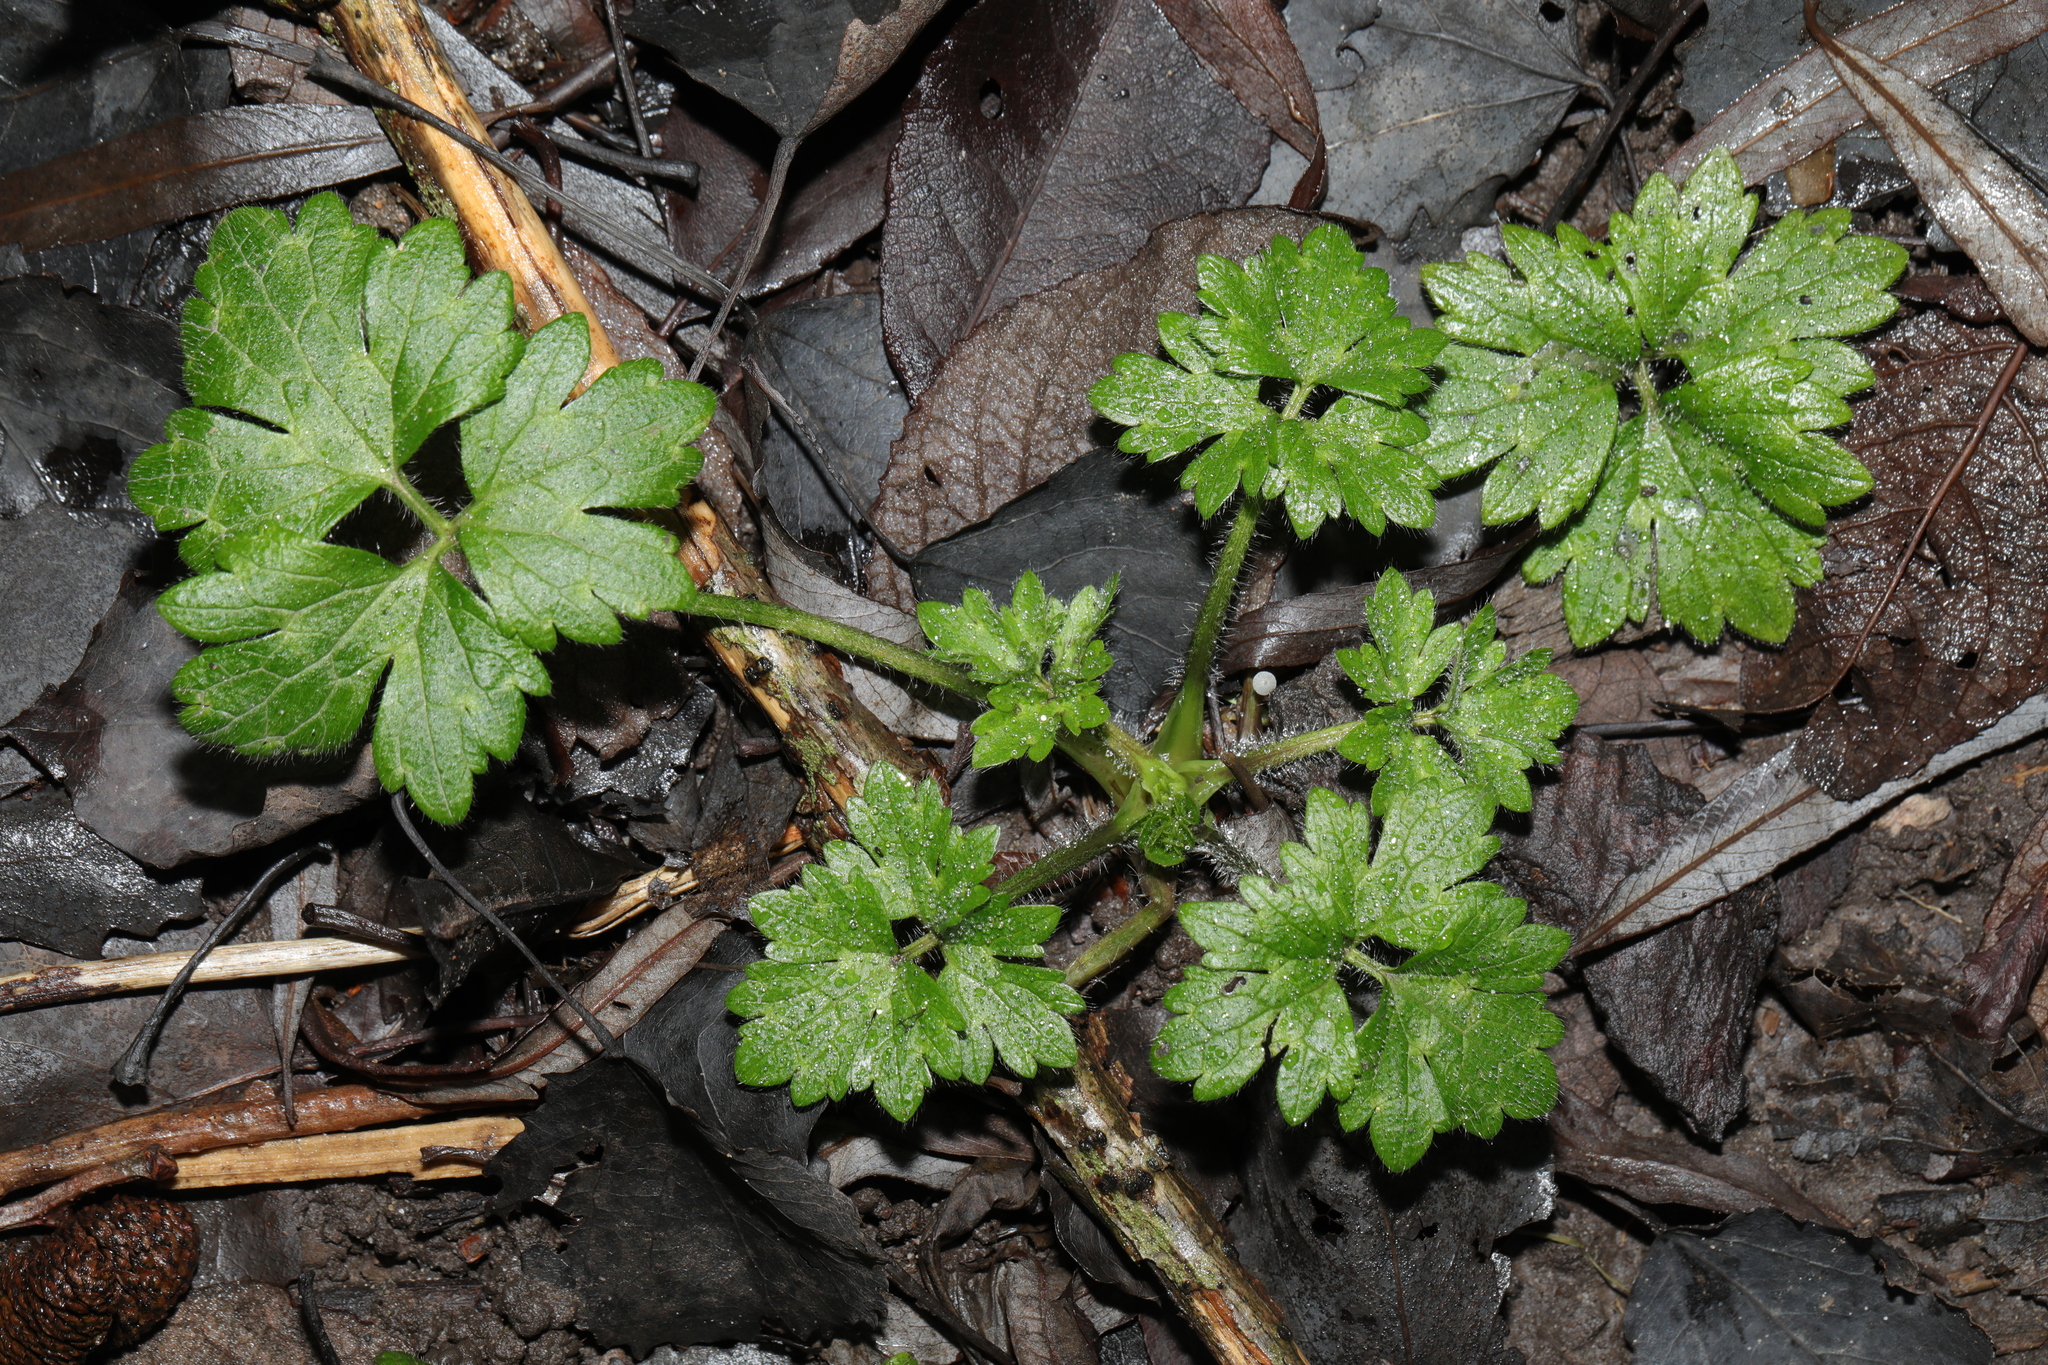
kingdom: Plantae
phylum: Tracheophyta
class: Magnoliopsida
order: Ranunculales
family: Ranunculaceae
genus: Ranunculus
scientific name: Ranunculus repens
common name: Creeping buttercup
